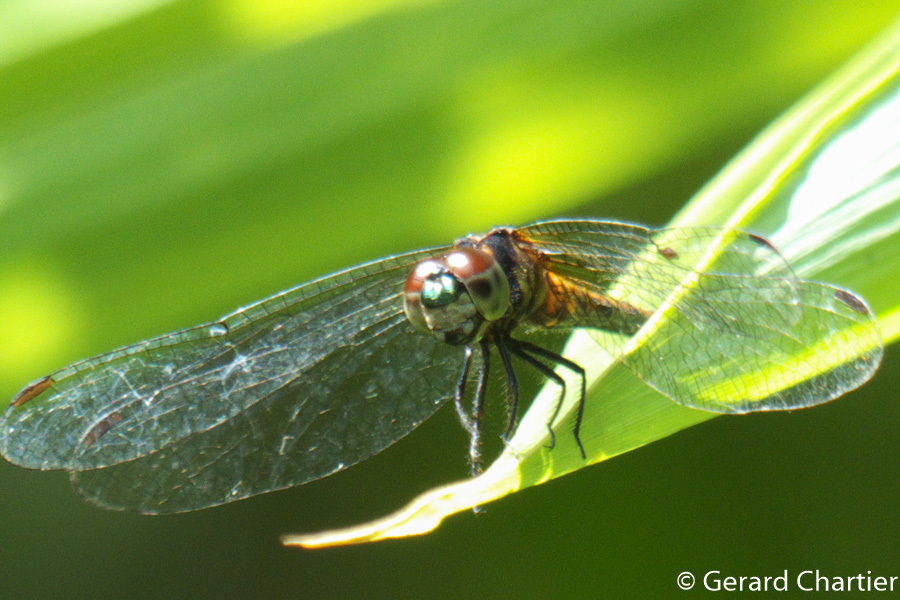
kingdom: Animalia
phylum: Arthropoda
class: Insecta
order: Odonata
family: Libellulidae
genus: Amphithemis
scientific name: Amphithemis curvistyla
